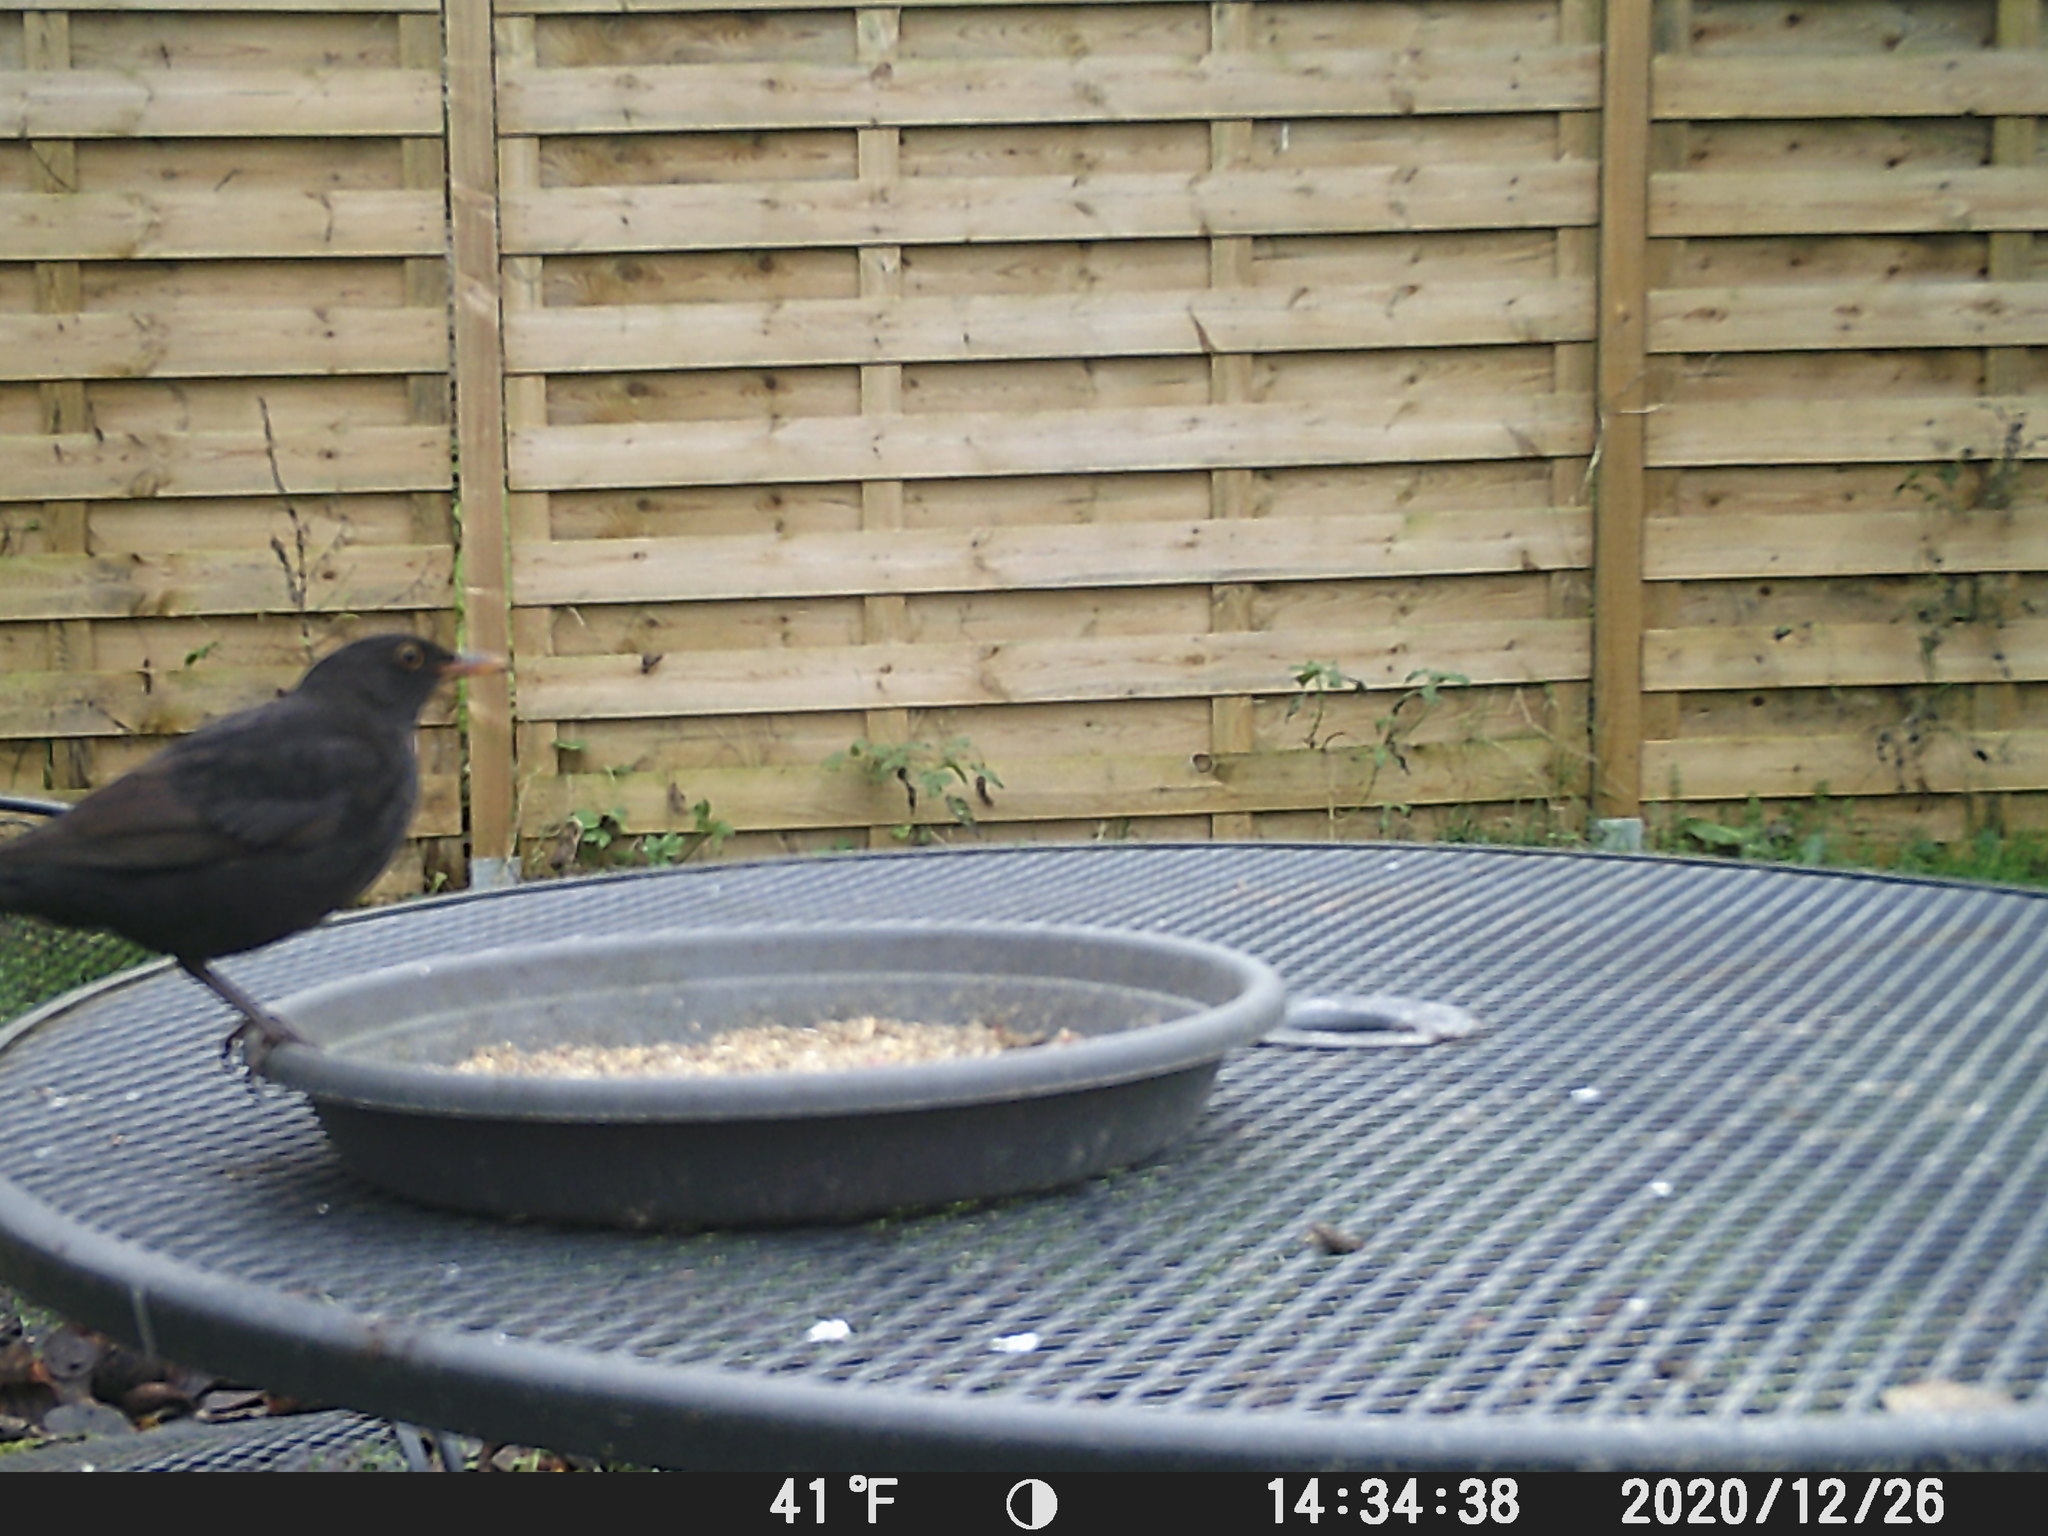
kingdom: Animalia
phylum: Chordata
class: Aves
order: Passeriformes
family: Turdidae
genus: Turdus
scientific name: Turdus merula
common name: Common blackbird
